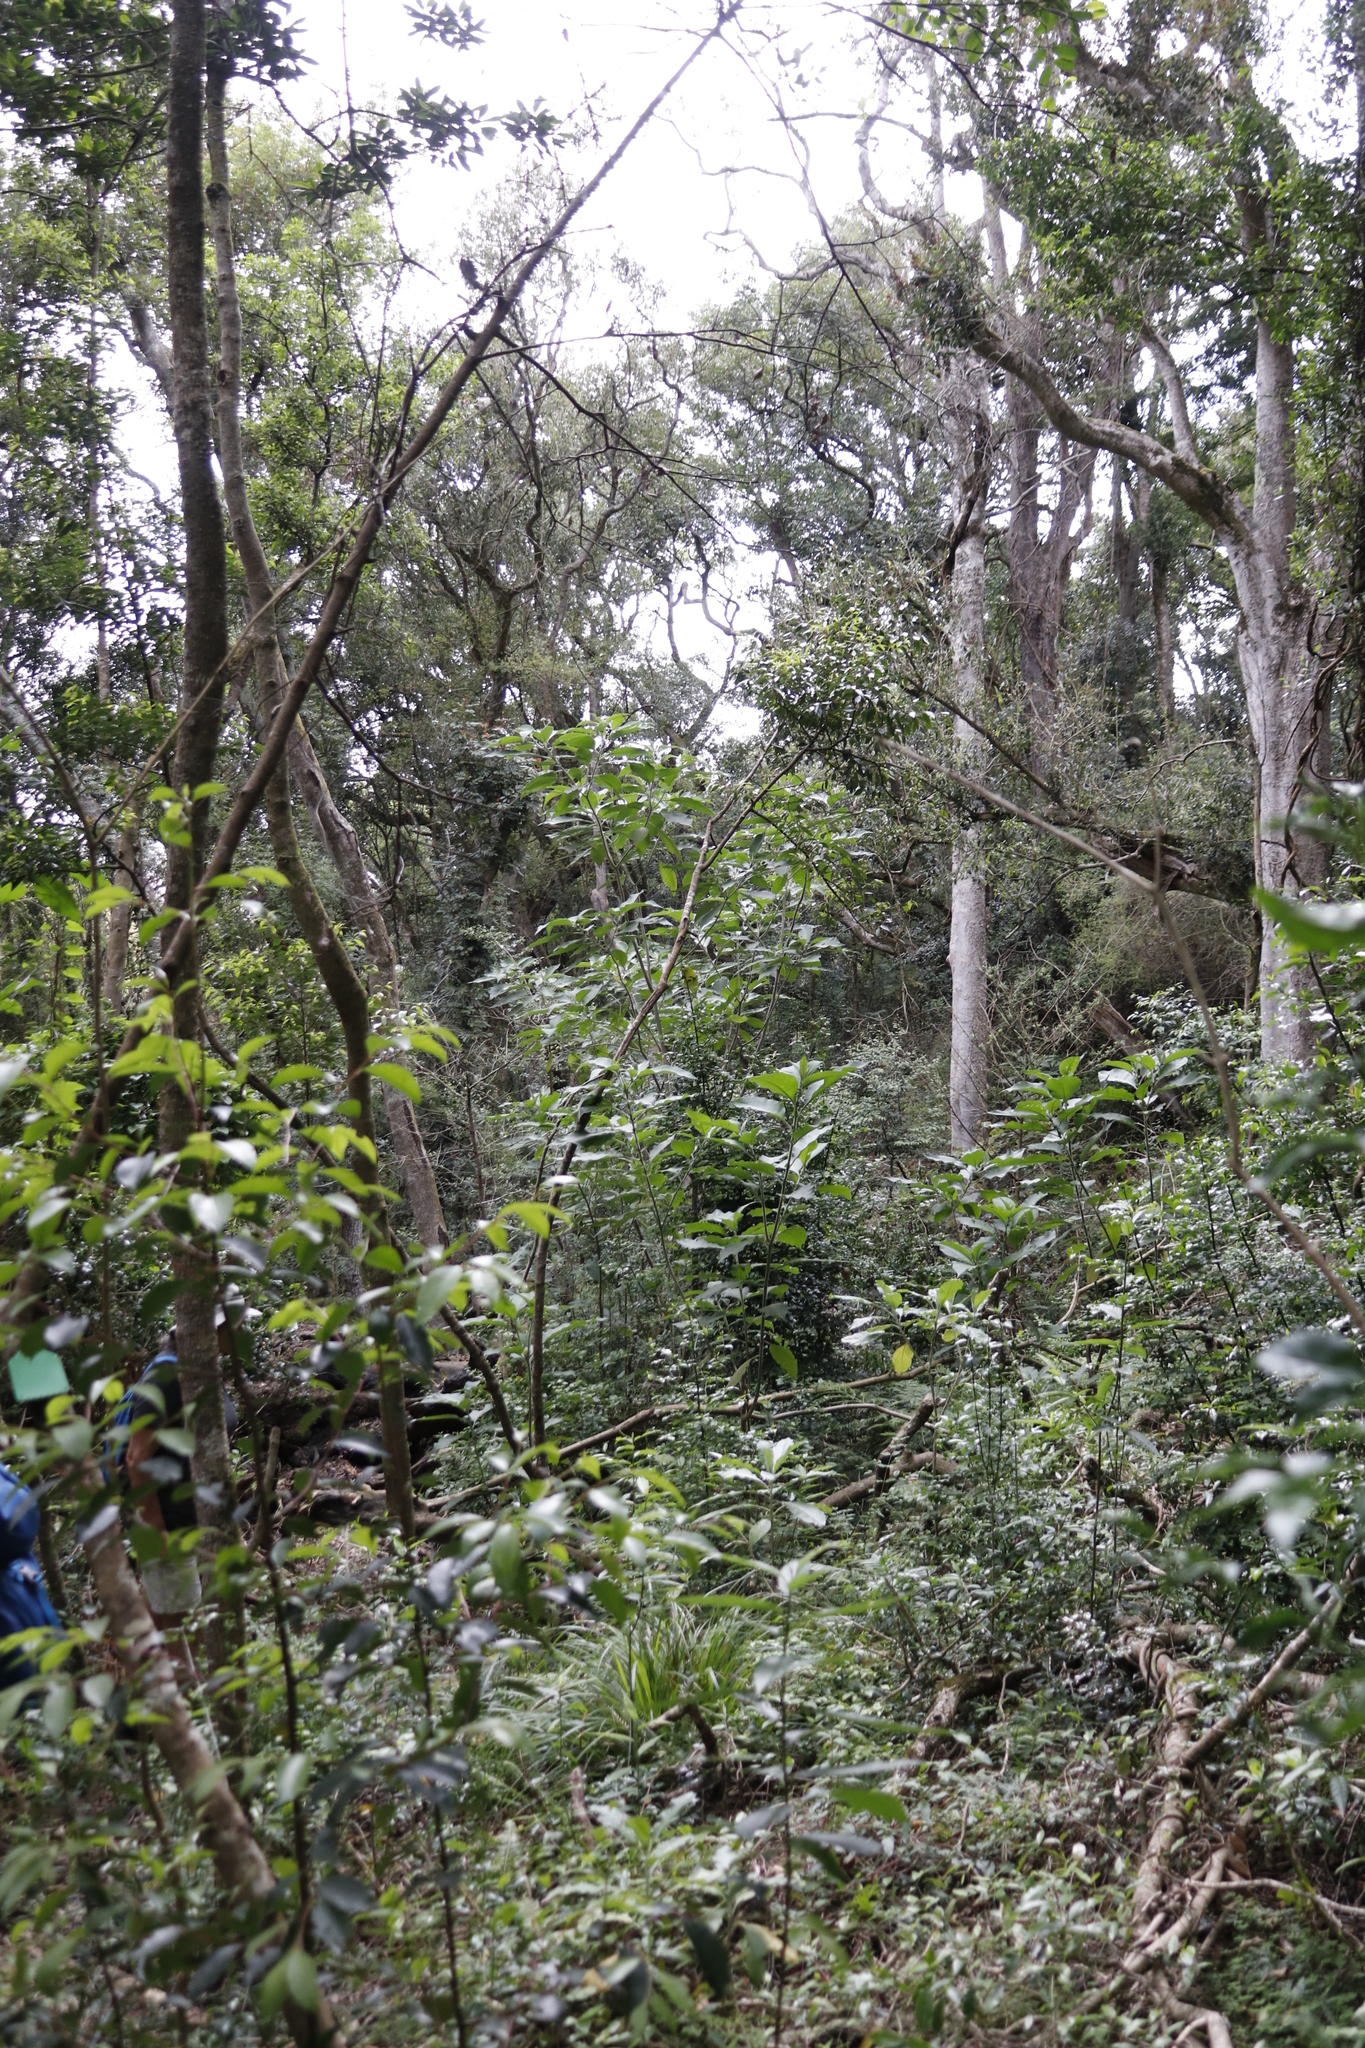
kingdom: Plantae
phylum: Tracheophyta
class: Magnoliopsida
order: Solanales
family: Solanaceae
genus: Solanum
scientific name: Solanum mauritianum
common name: Earleaf nightshade
